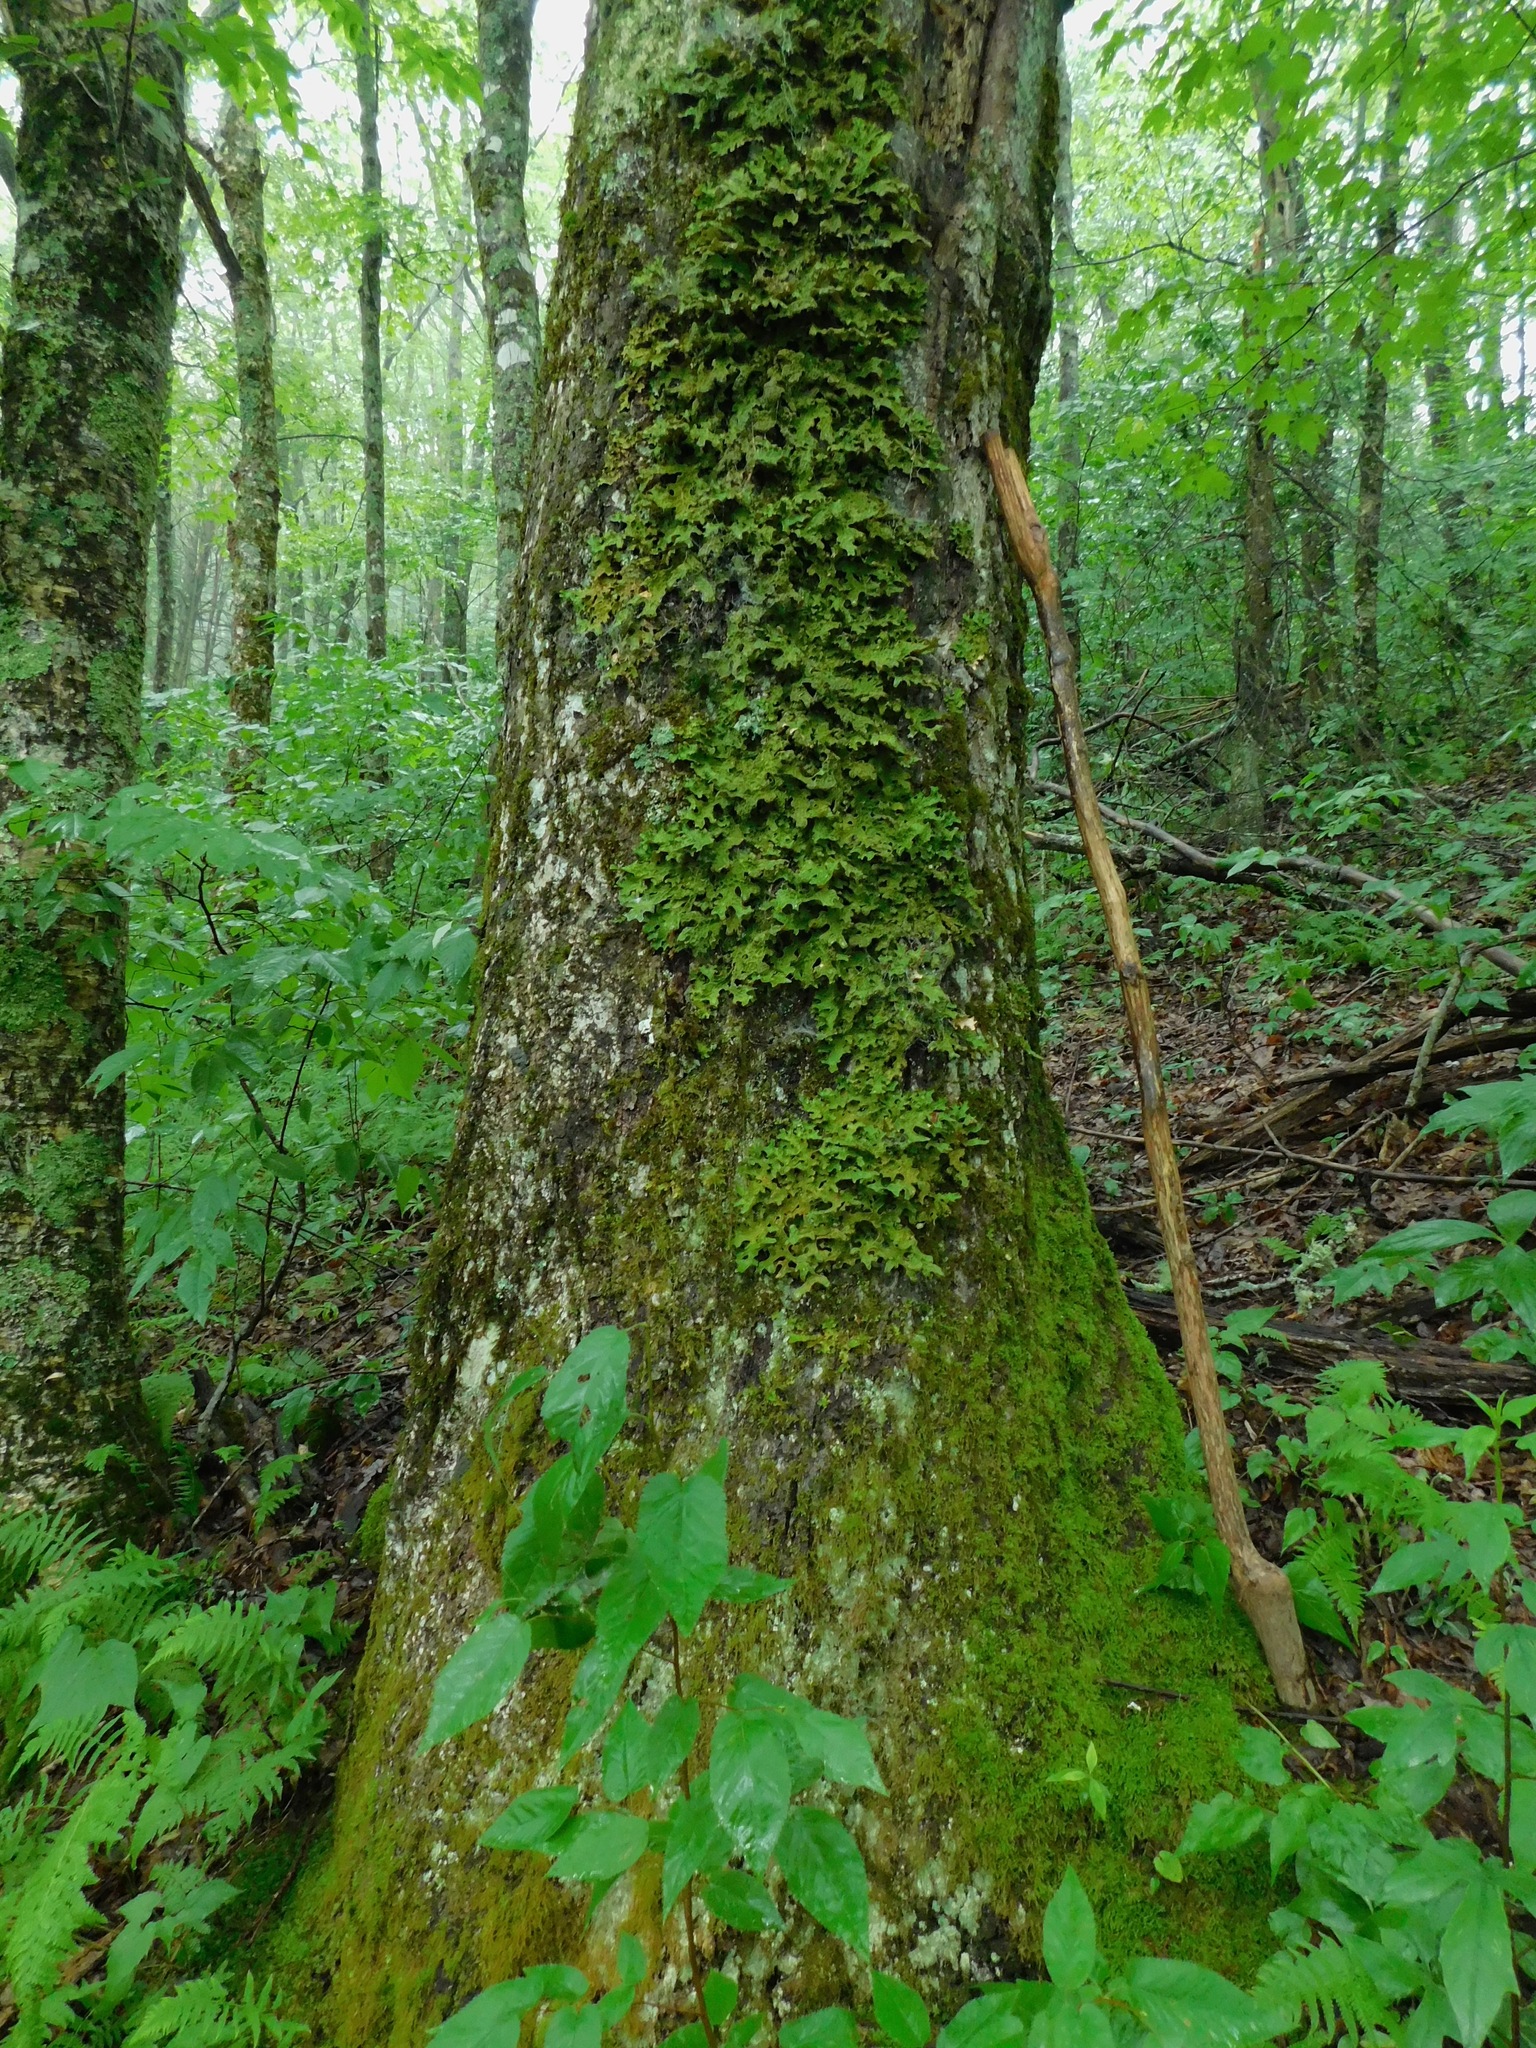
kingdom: Fungi
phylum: Ascomycota
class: Lecanoromycetes
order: Peltigerales
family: Lobariaceae
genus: Lobaria
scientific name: Lobaria pulmonaria
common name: Lungwort
